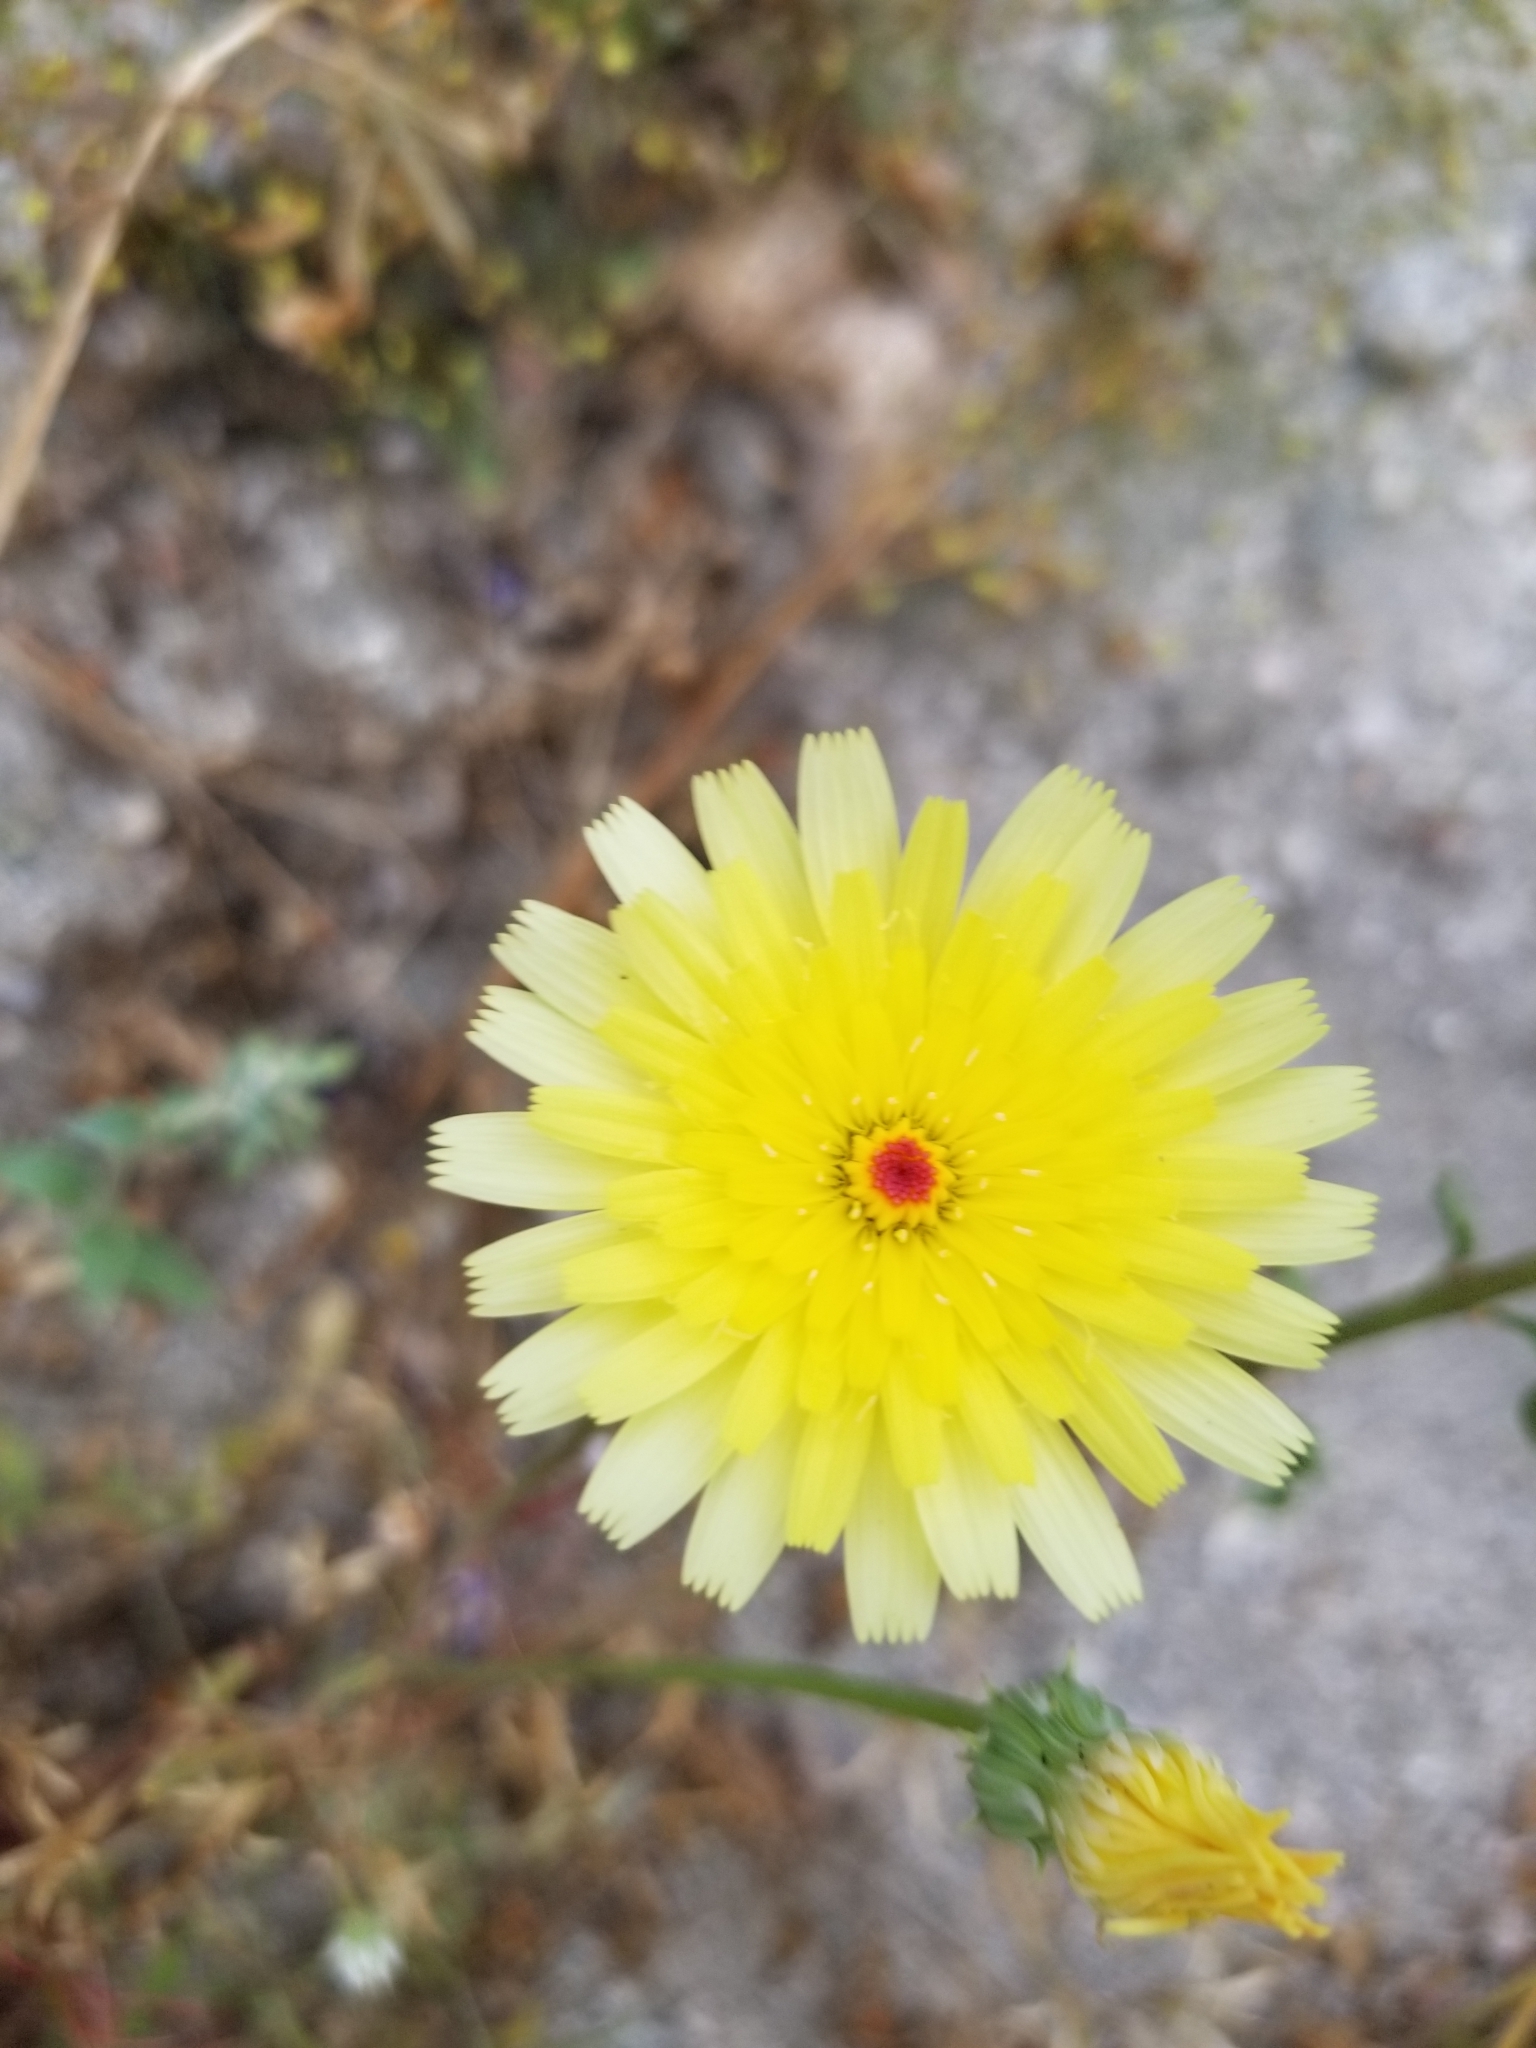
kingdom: Plantae
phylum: Tracheophyta
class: Magnoliopsida
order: Asterales
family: Asteraceae
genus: Malacothrix
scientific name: Malacothrix glabrata
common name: Smooth desert-dandelion
